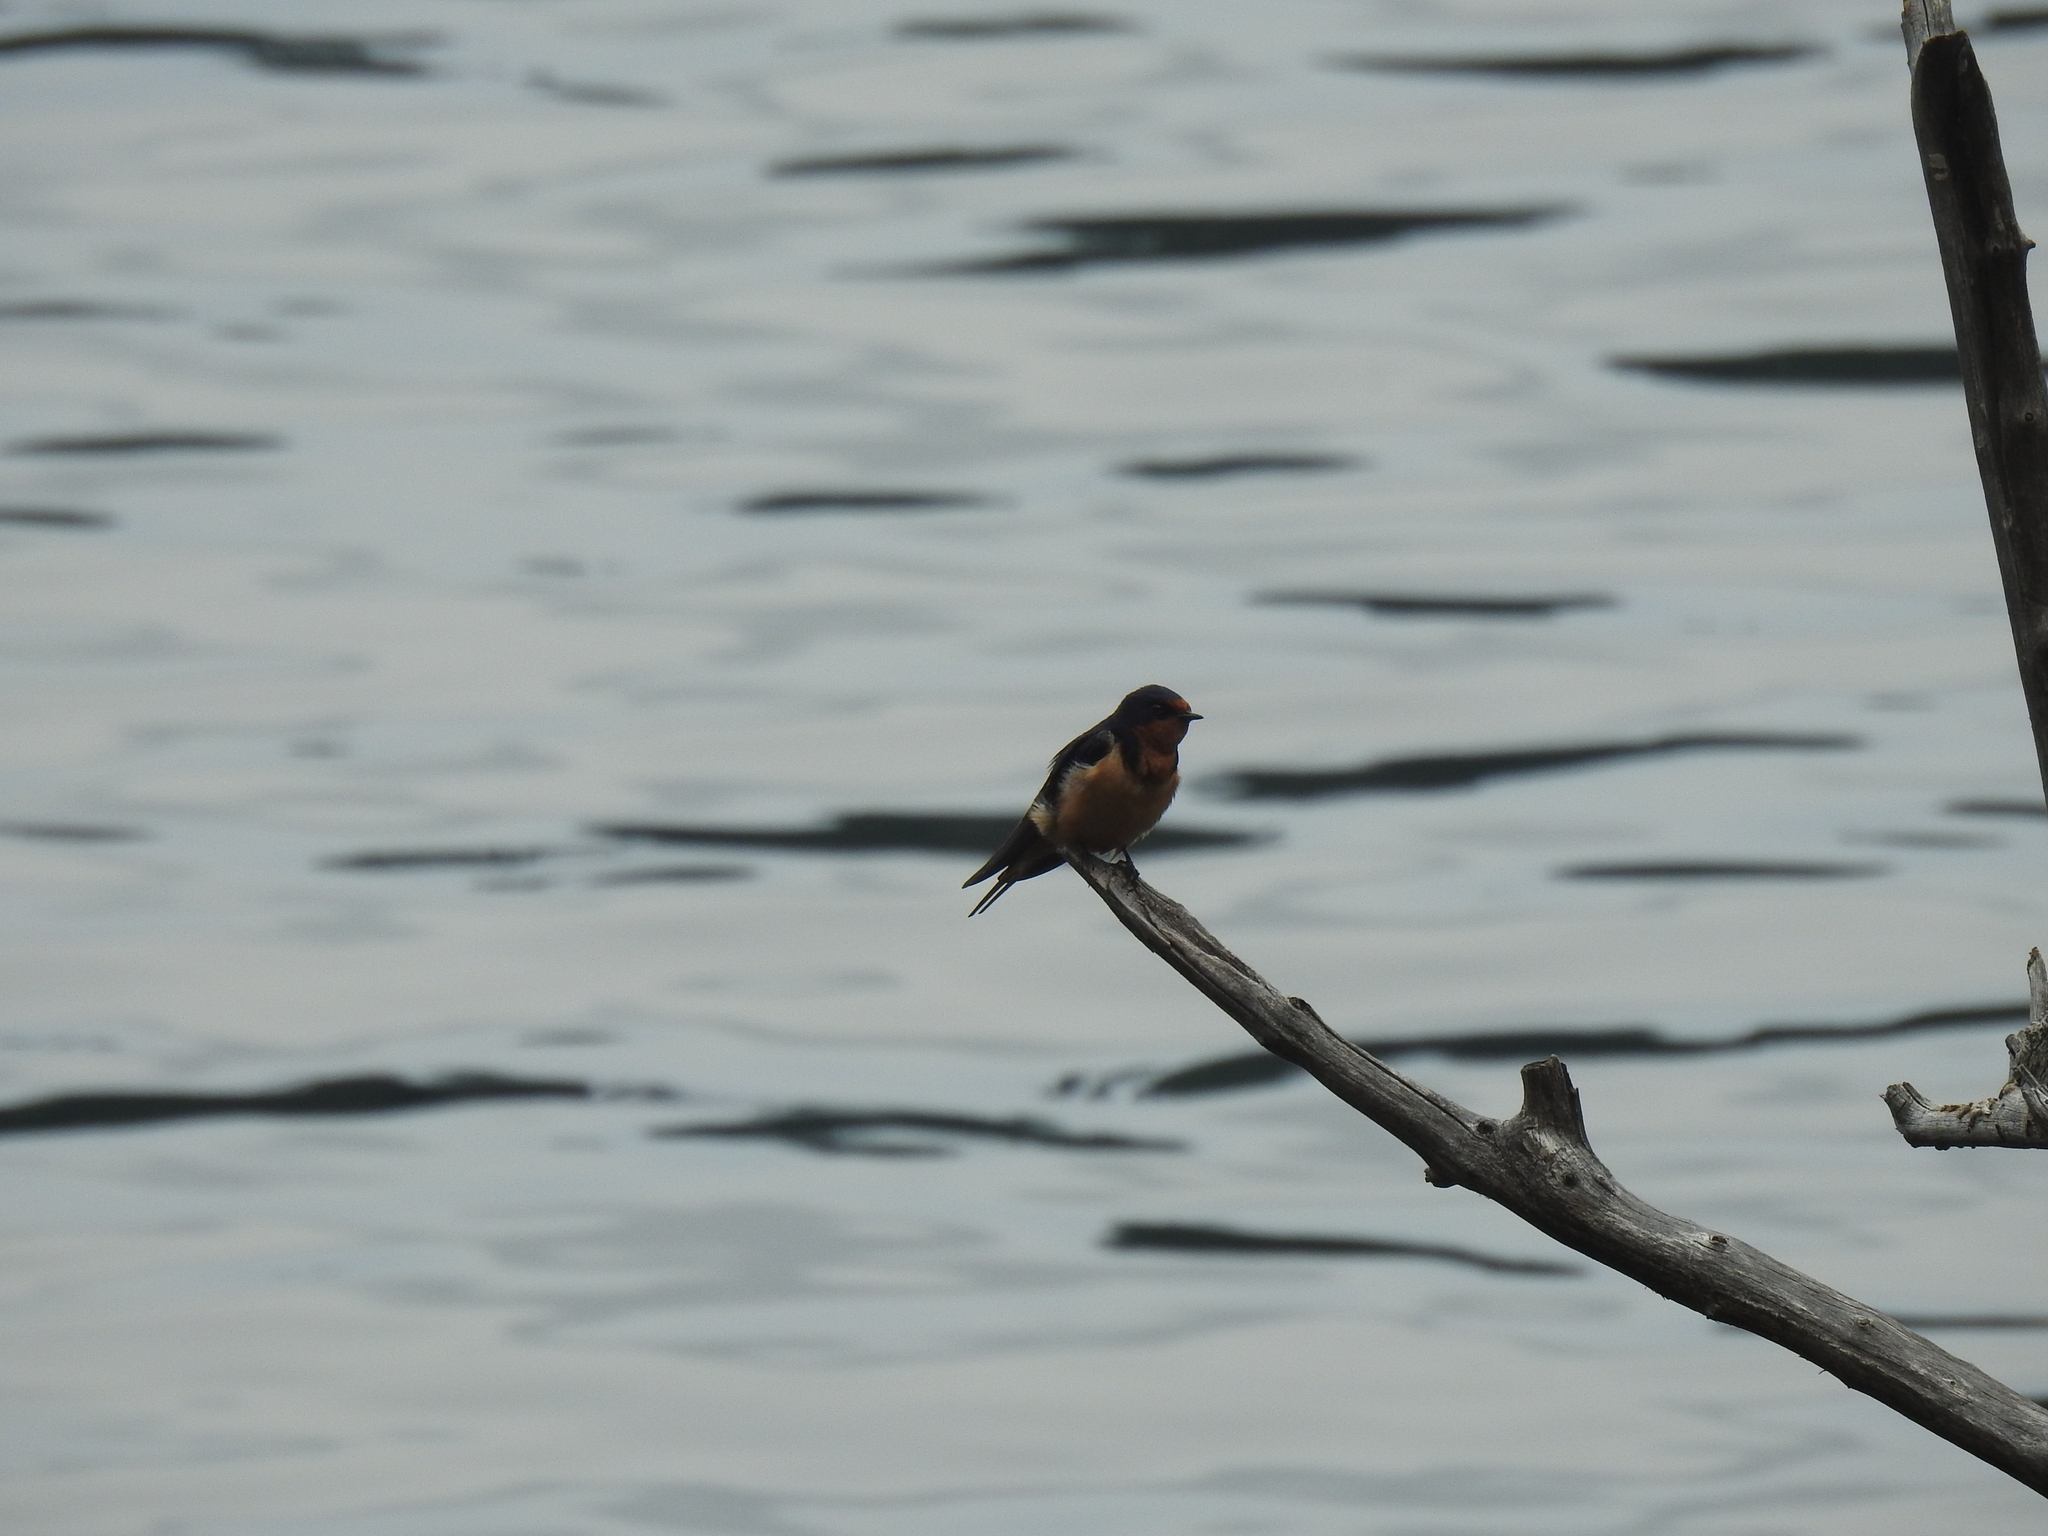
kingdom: Animalia
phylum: Chordata
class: Aves
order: Passeriformes
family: Hirundinidae
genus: Hirundo
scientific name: Hirundo rustica
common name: Barn swallow
